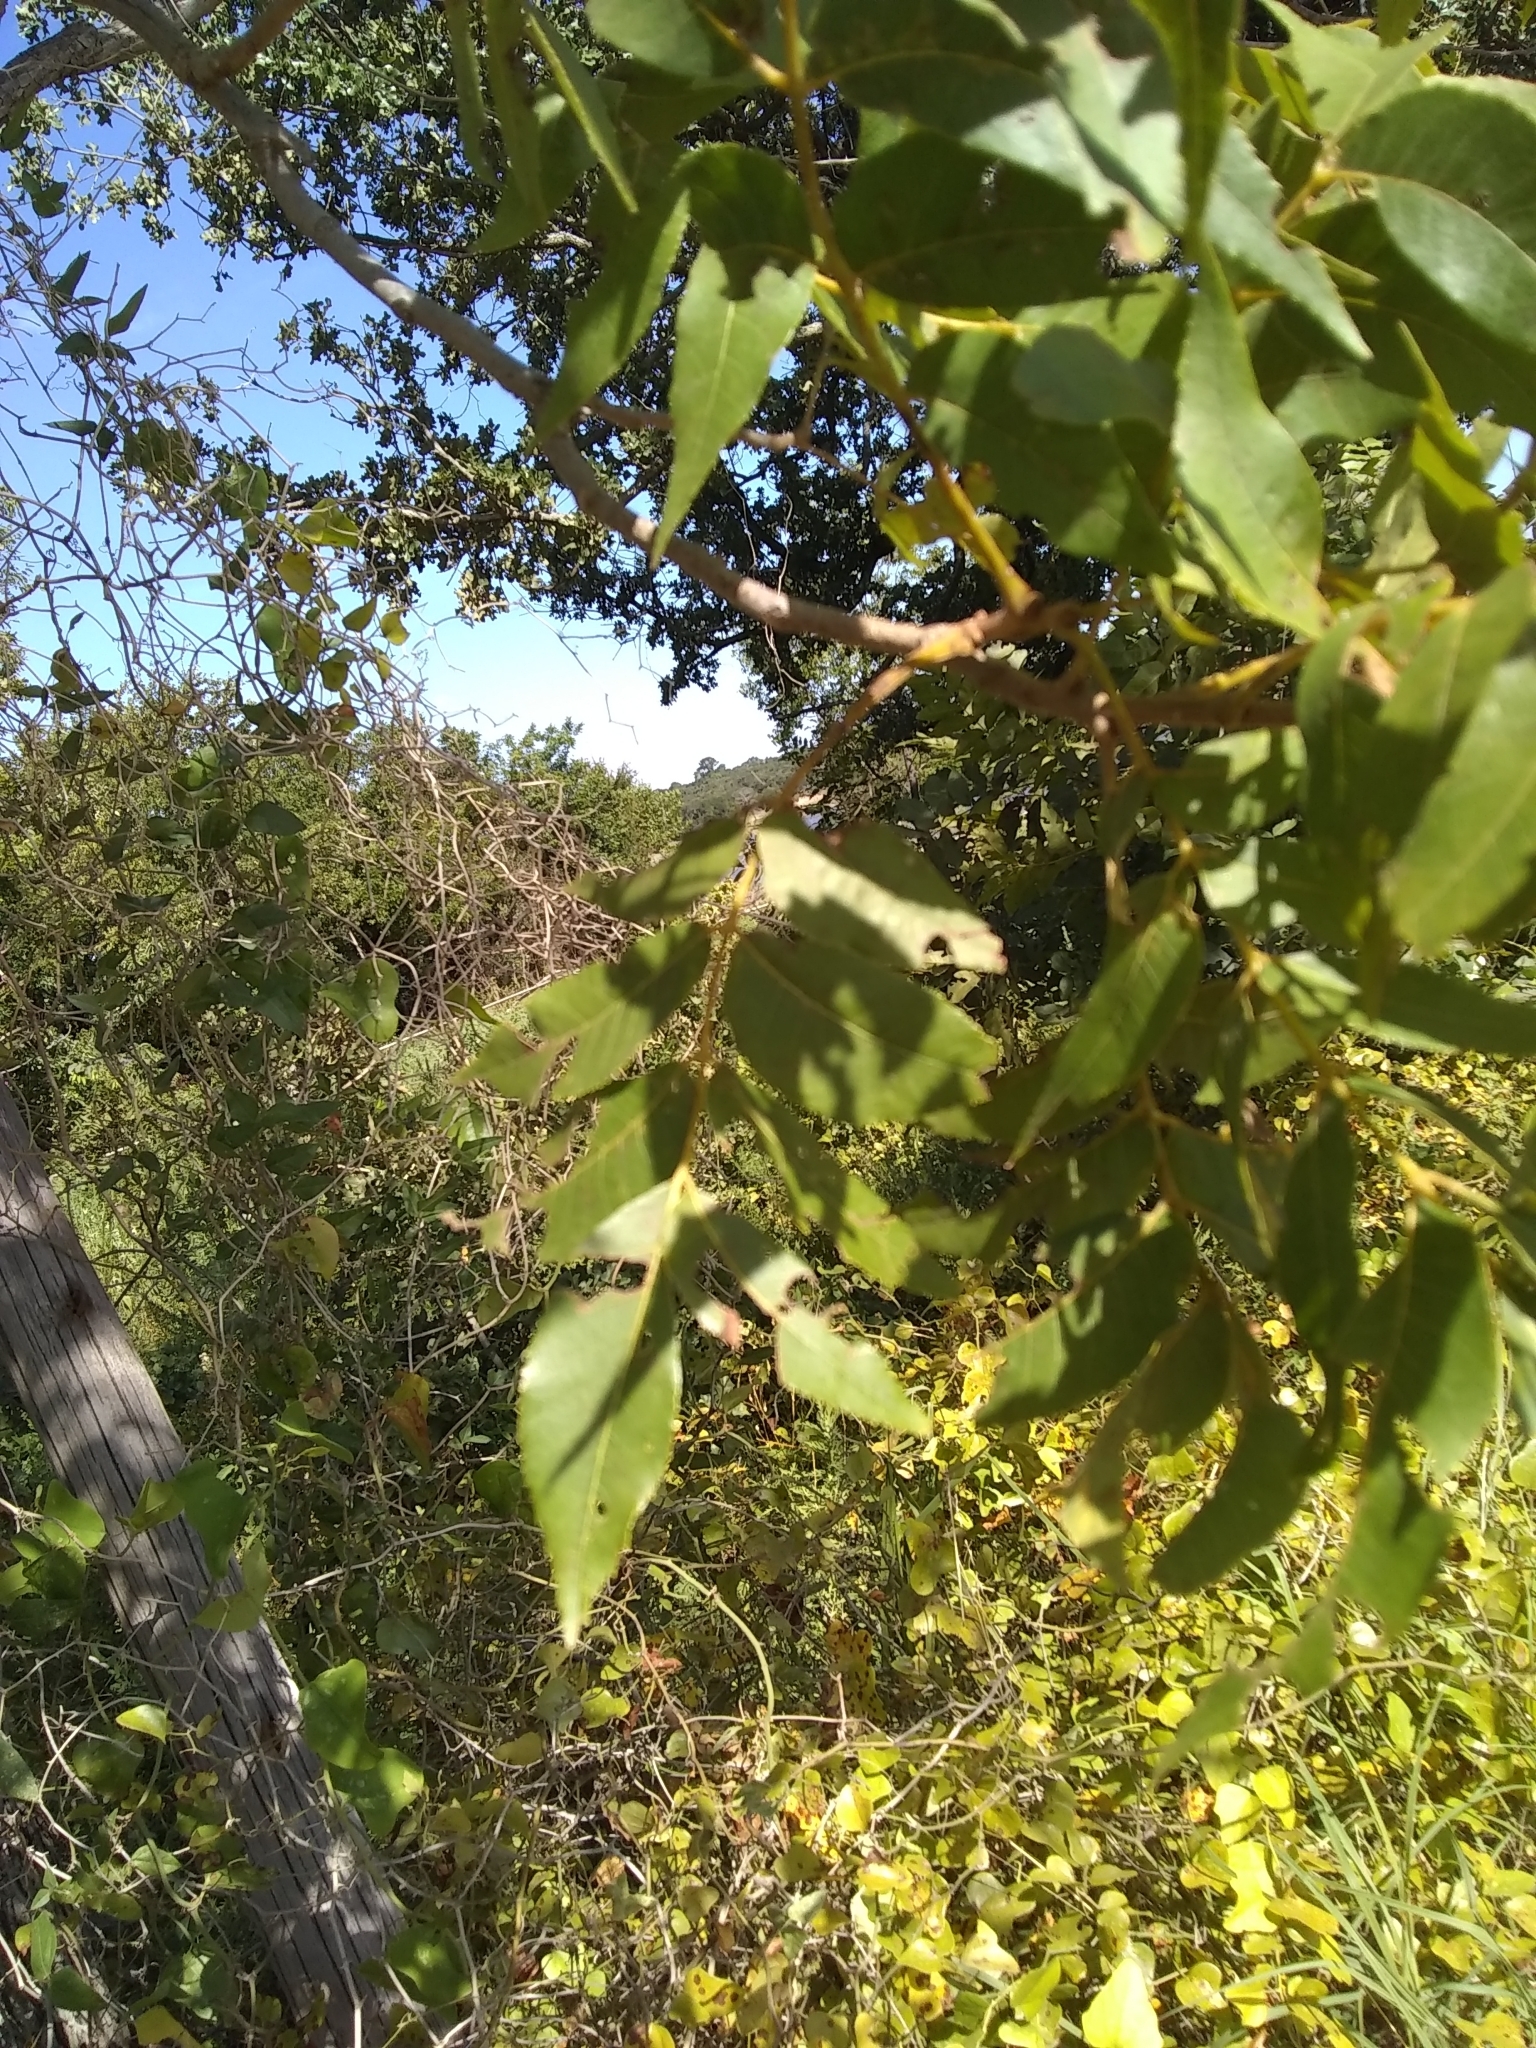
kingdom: Plantae
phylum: Tracheophyta
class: Magnoliopsida
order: Fagales
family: Juglandaceae
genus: Carya
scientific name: Carya illinoinensis
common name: Pecan
